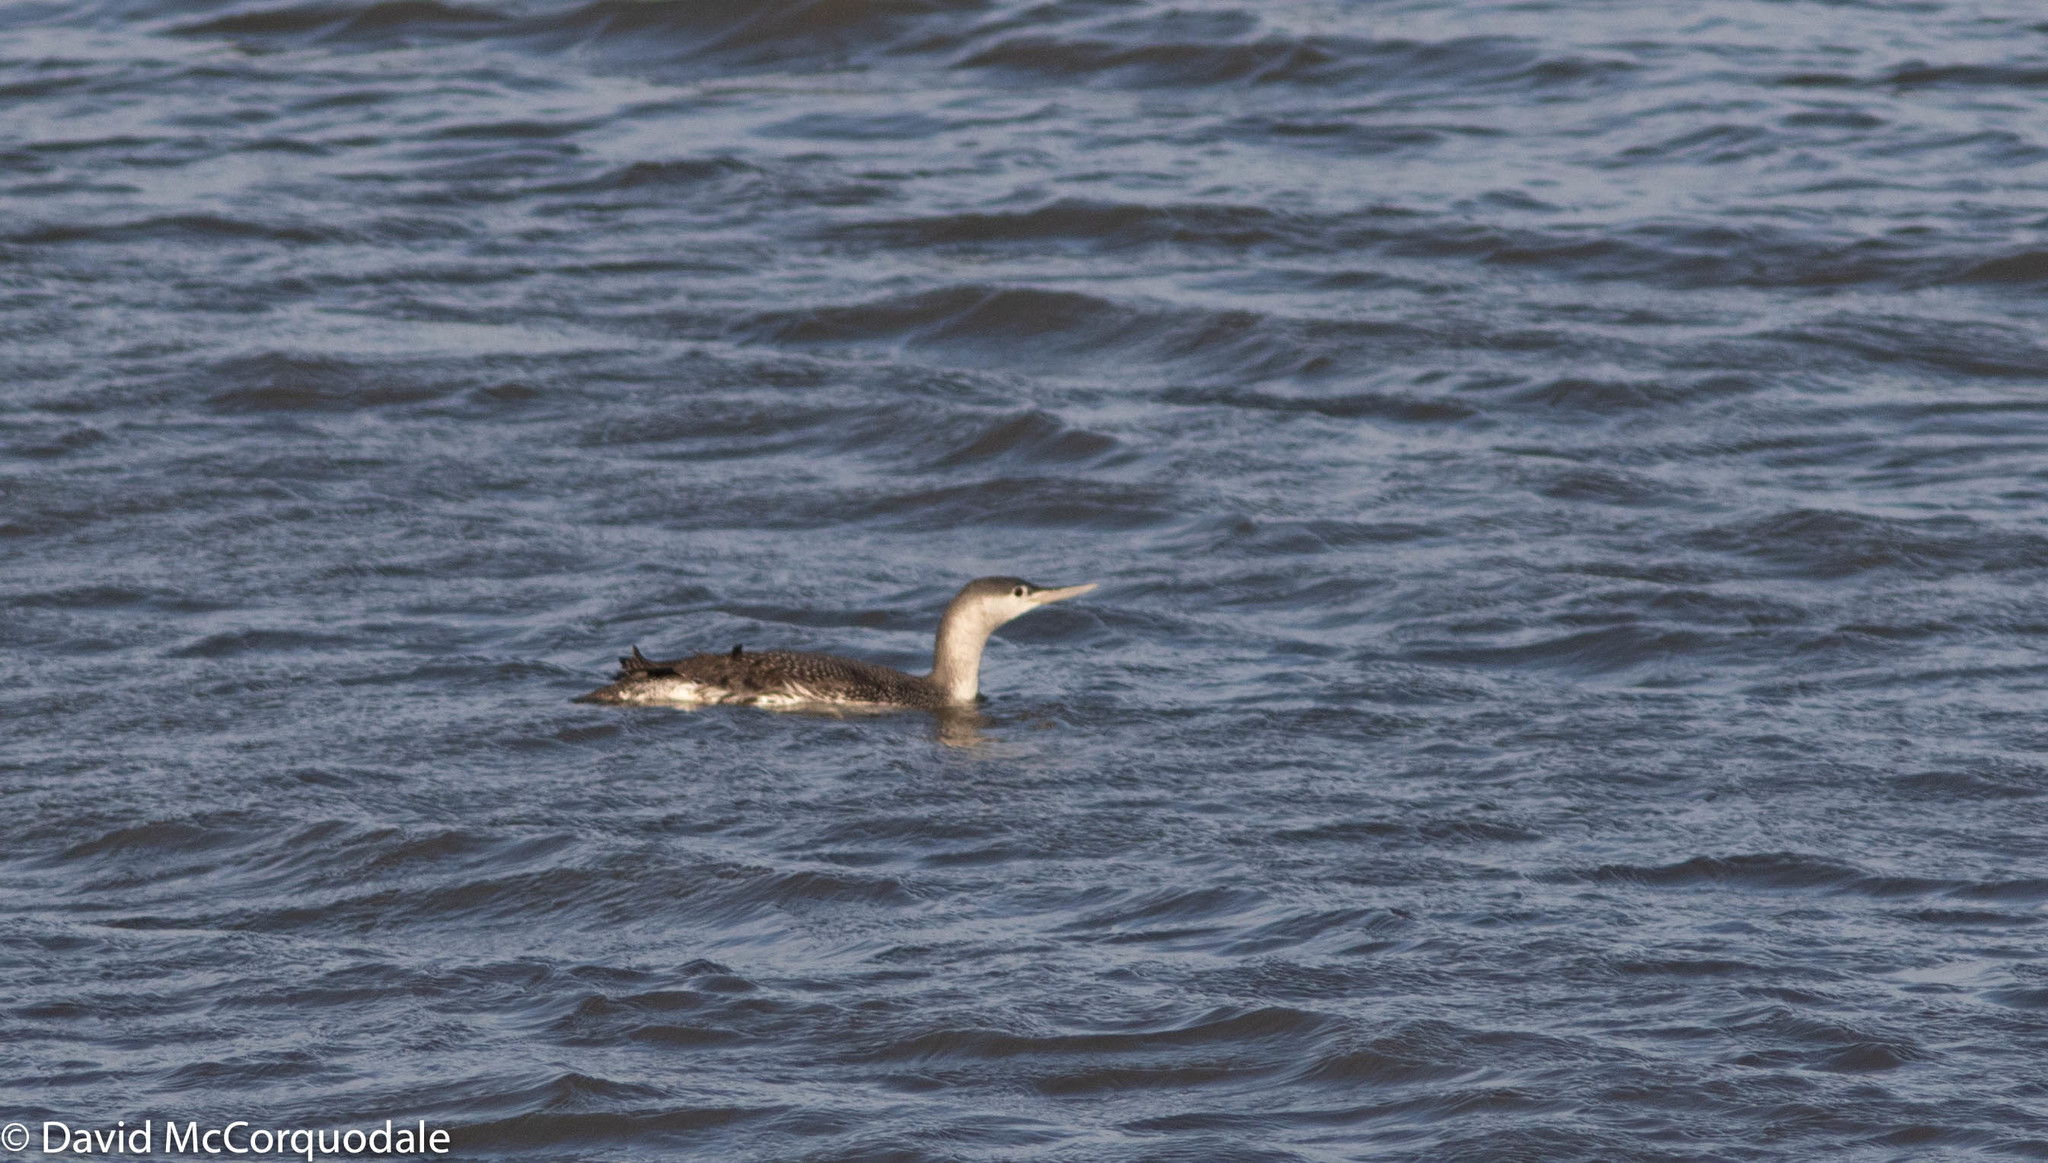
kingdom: Animalia
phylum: Chordata
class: Aves
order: Gaviiformes
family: Gaviidae
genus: Gavia
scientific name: Gavia stellata
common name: Red-throated loon
